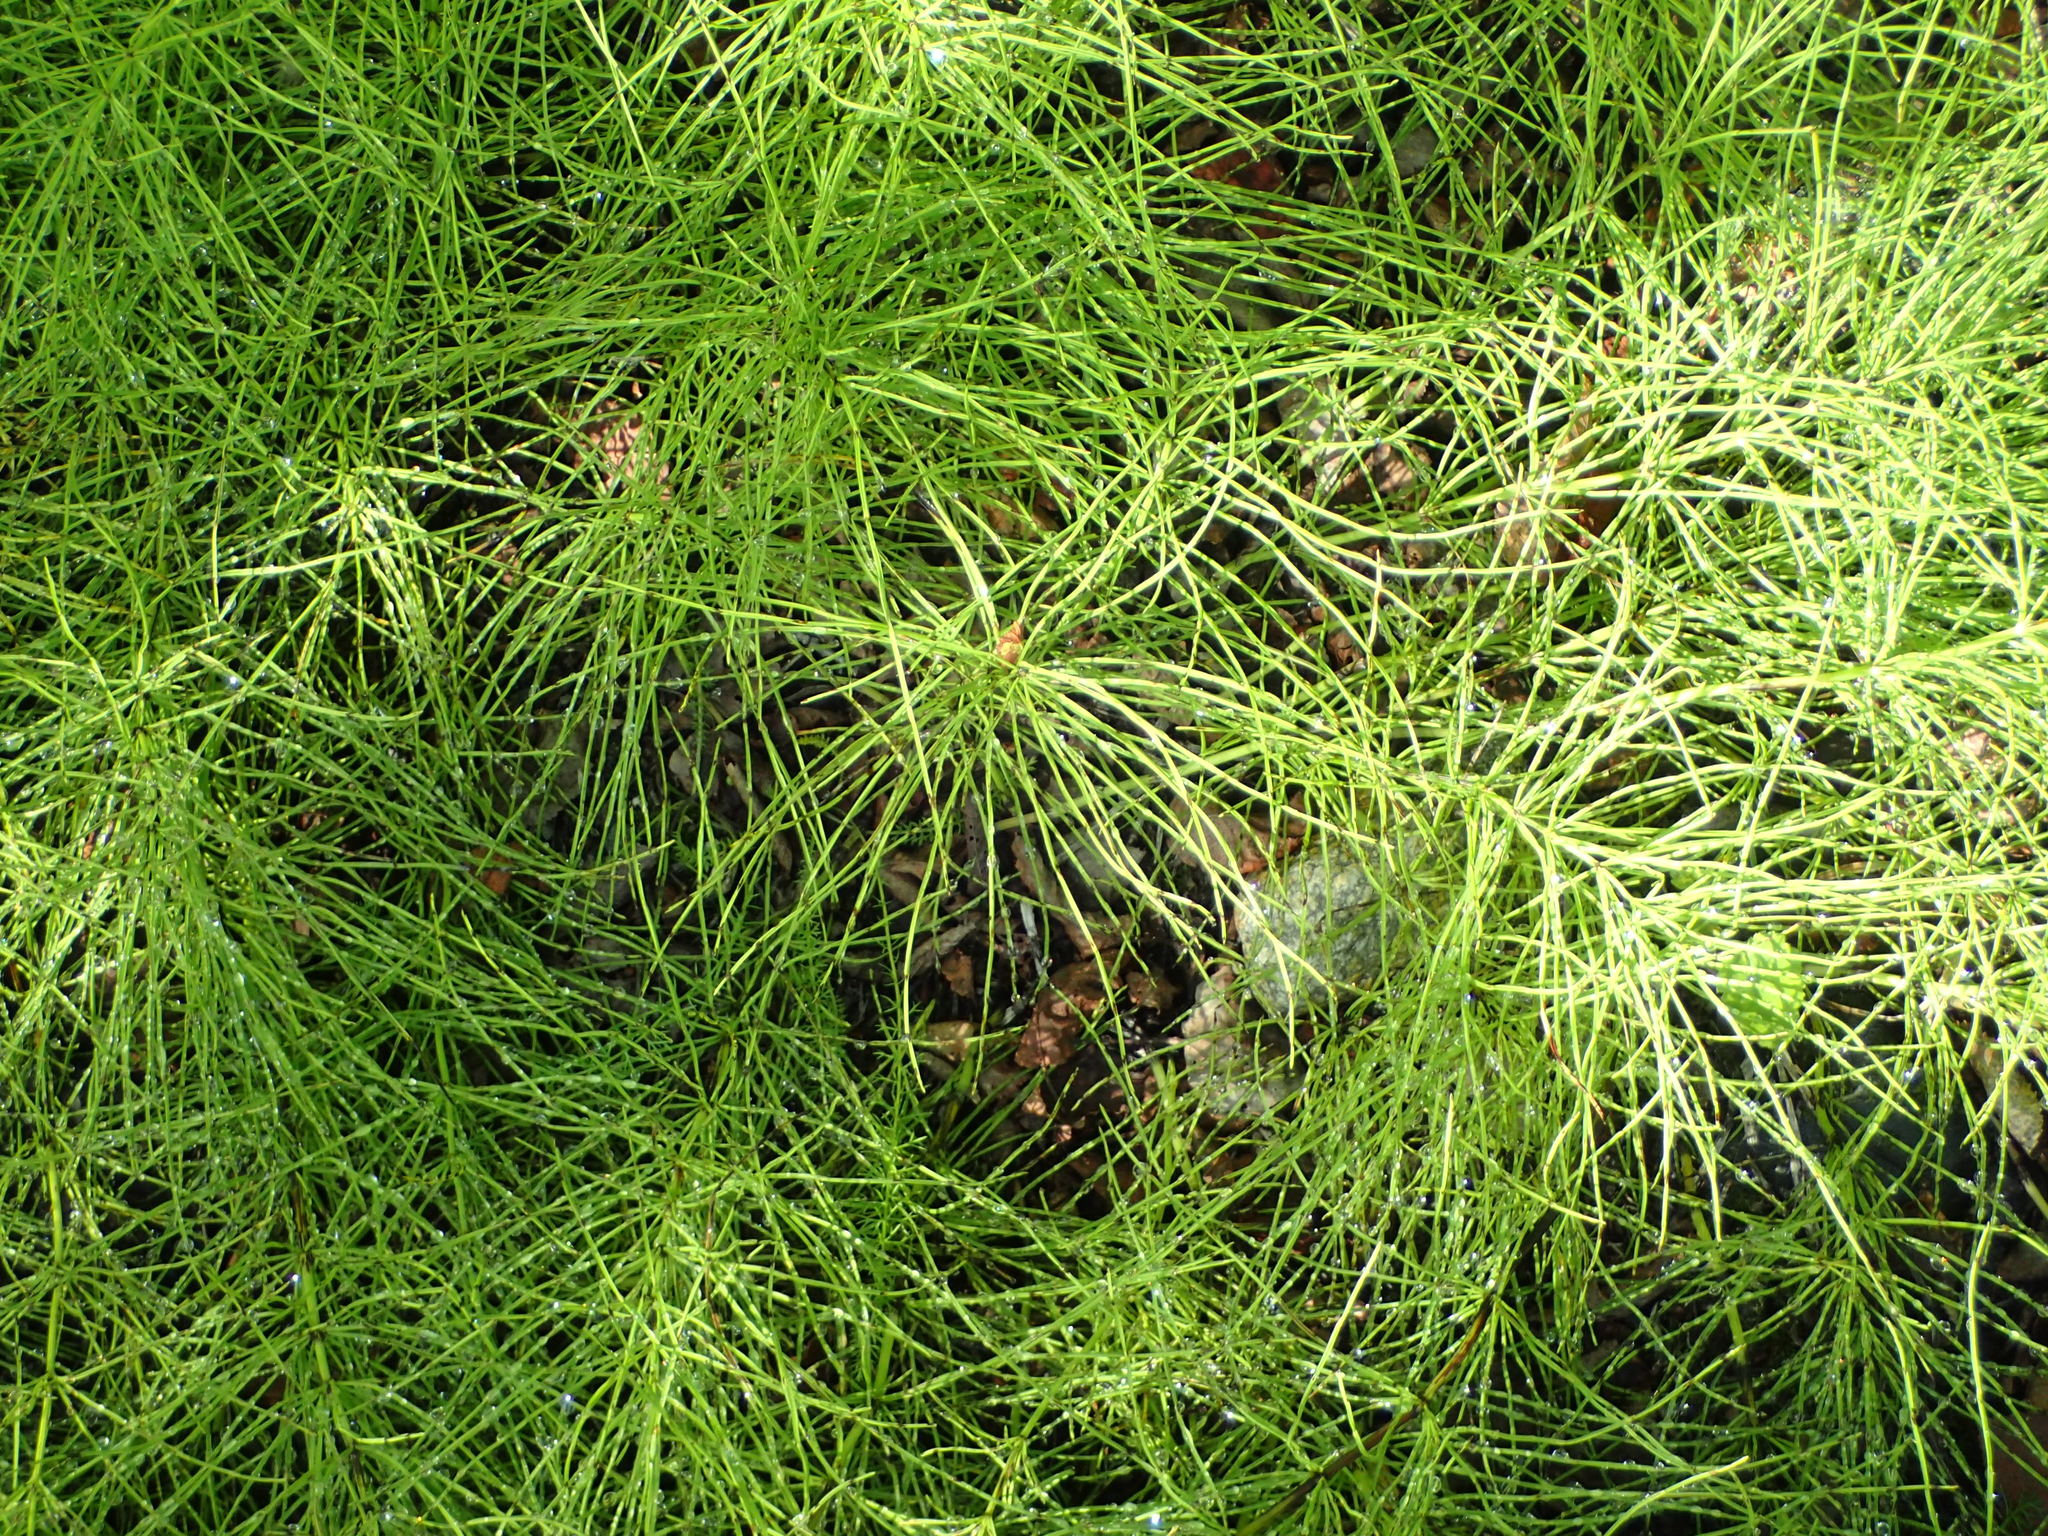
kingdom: Plantae
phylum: Tracheophyta
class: Polypodiopsida
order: Equisetales
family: Equisetaceae
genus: Equisetum
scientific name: Equisetum arvense
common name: Field horsetail
